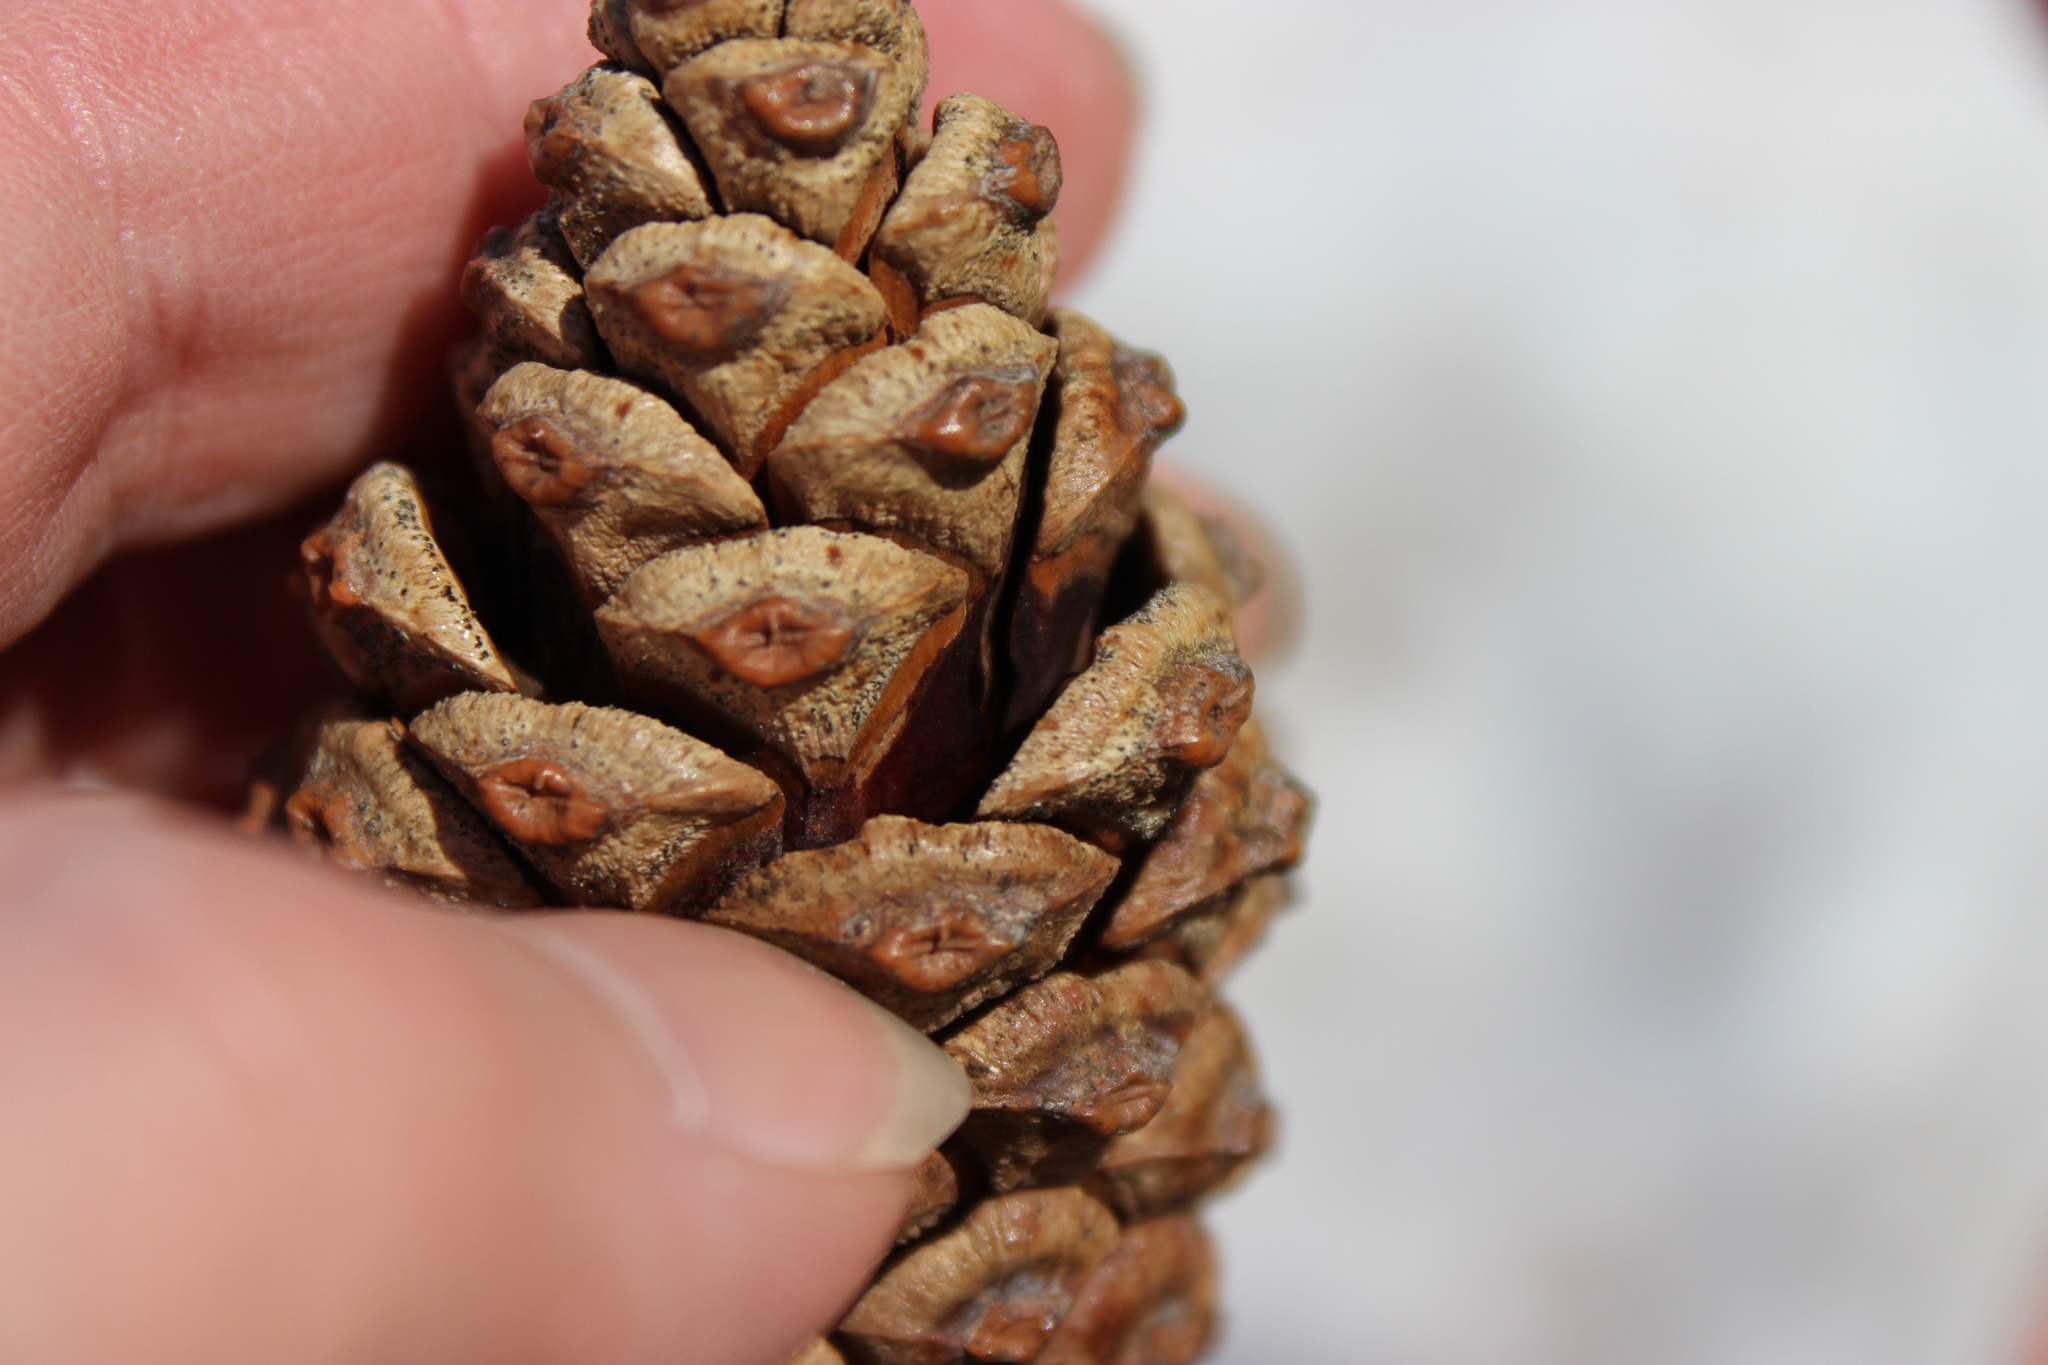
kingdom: Plantae
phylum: Tracheophyta
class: Pinopsida
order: Pinales
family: Pinaceae
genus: Pinus
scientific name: Pinus nigra
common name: Austrian pine
